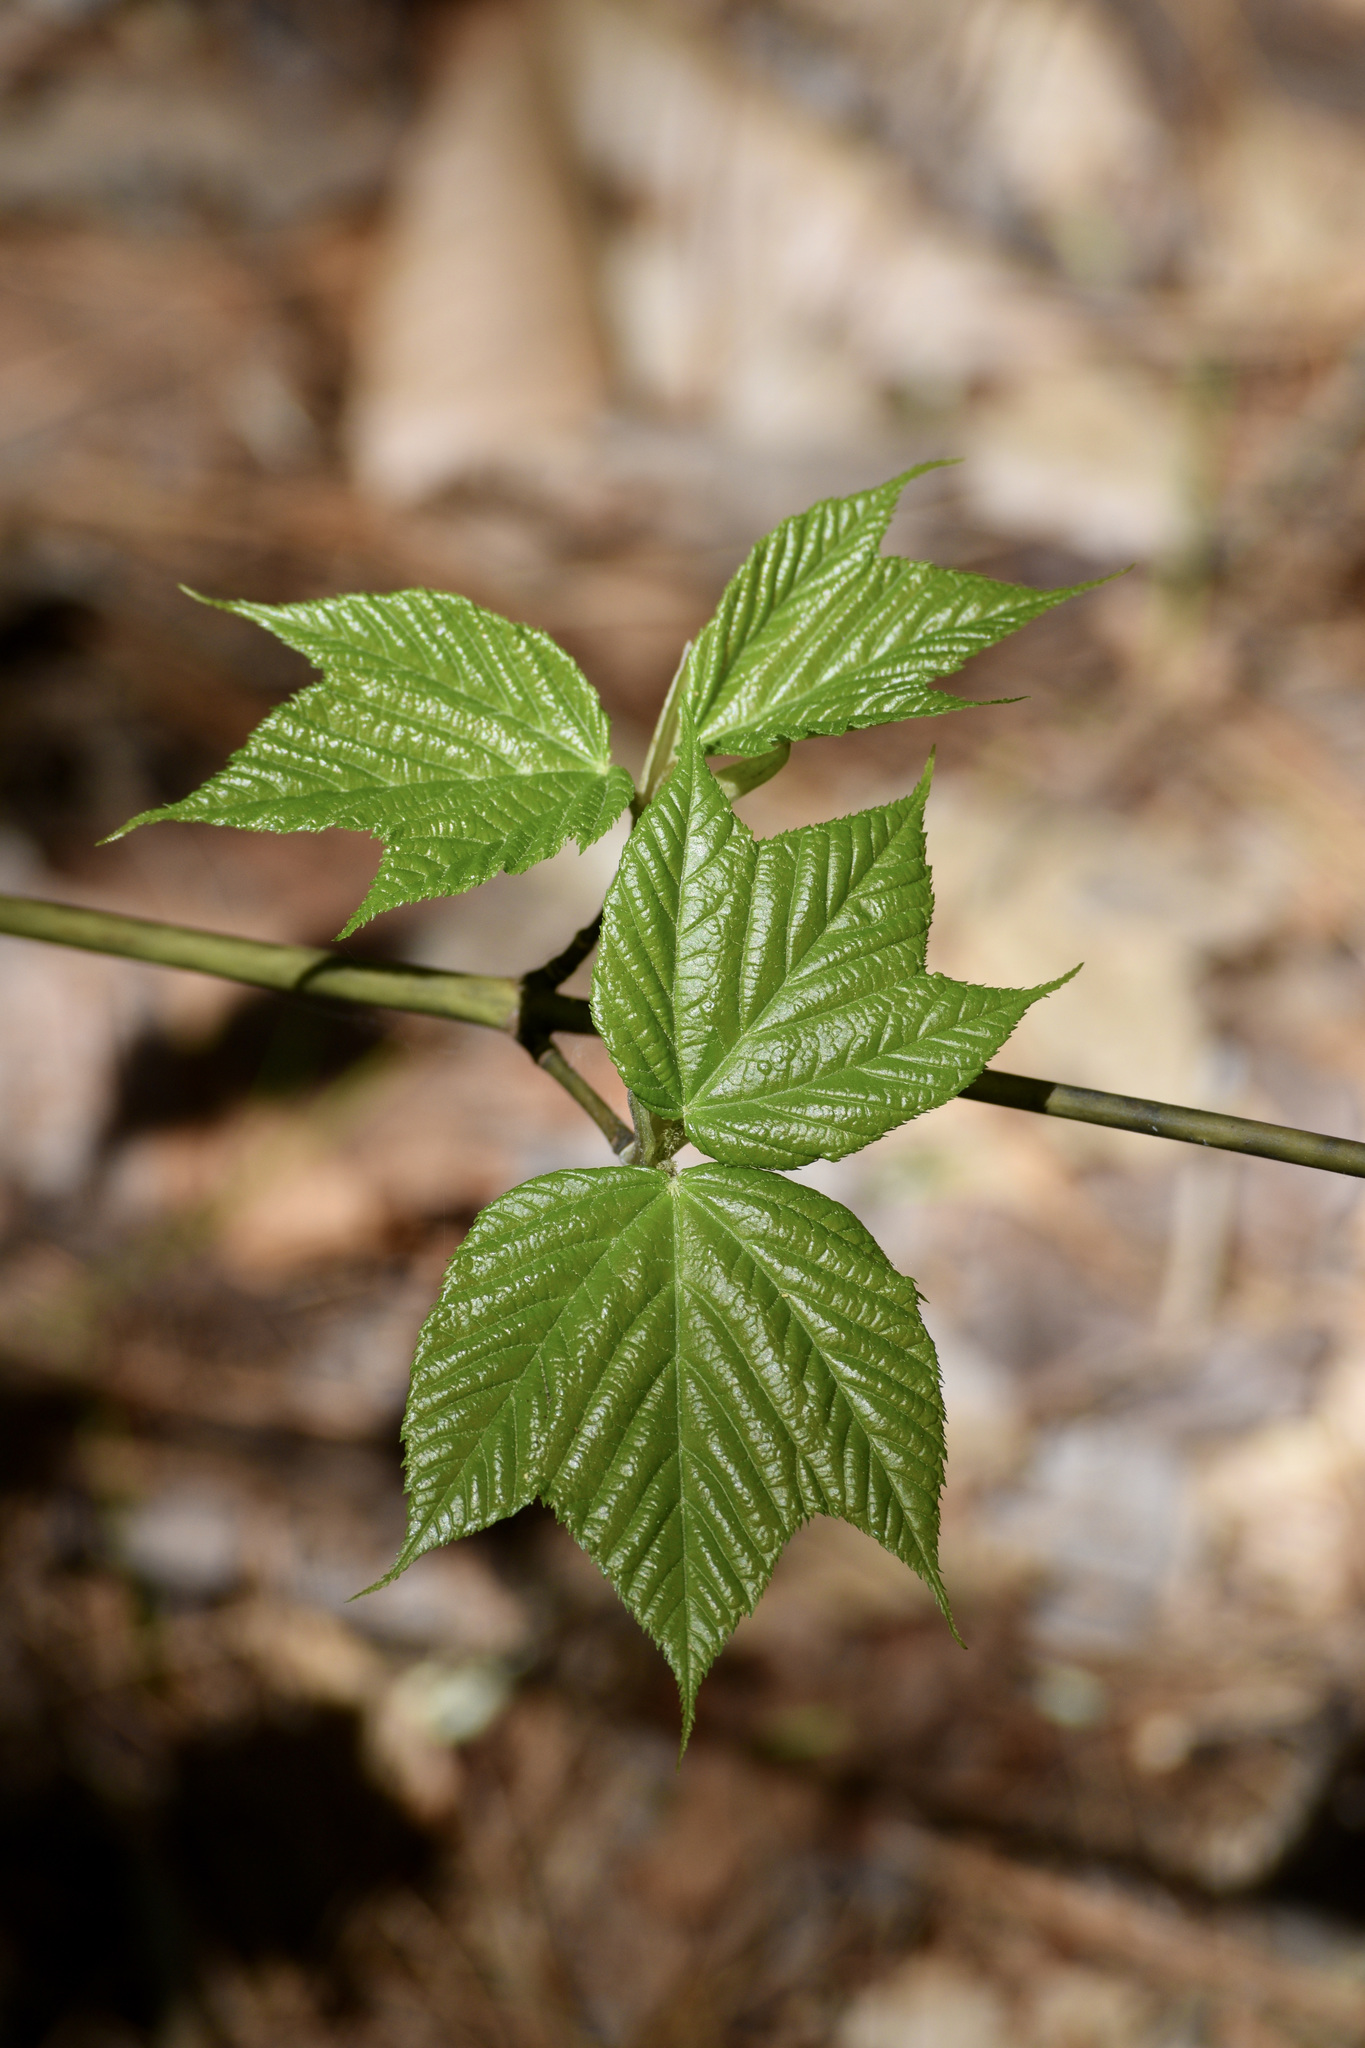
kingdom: Plantae
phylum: Tracheophyta
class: Magnoliopsida
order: Sapindales
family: Sapindaceae
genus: Acer
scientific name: Acer pensylvanicum
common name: Moosewood
